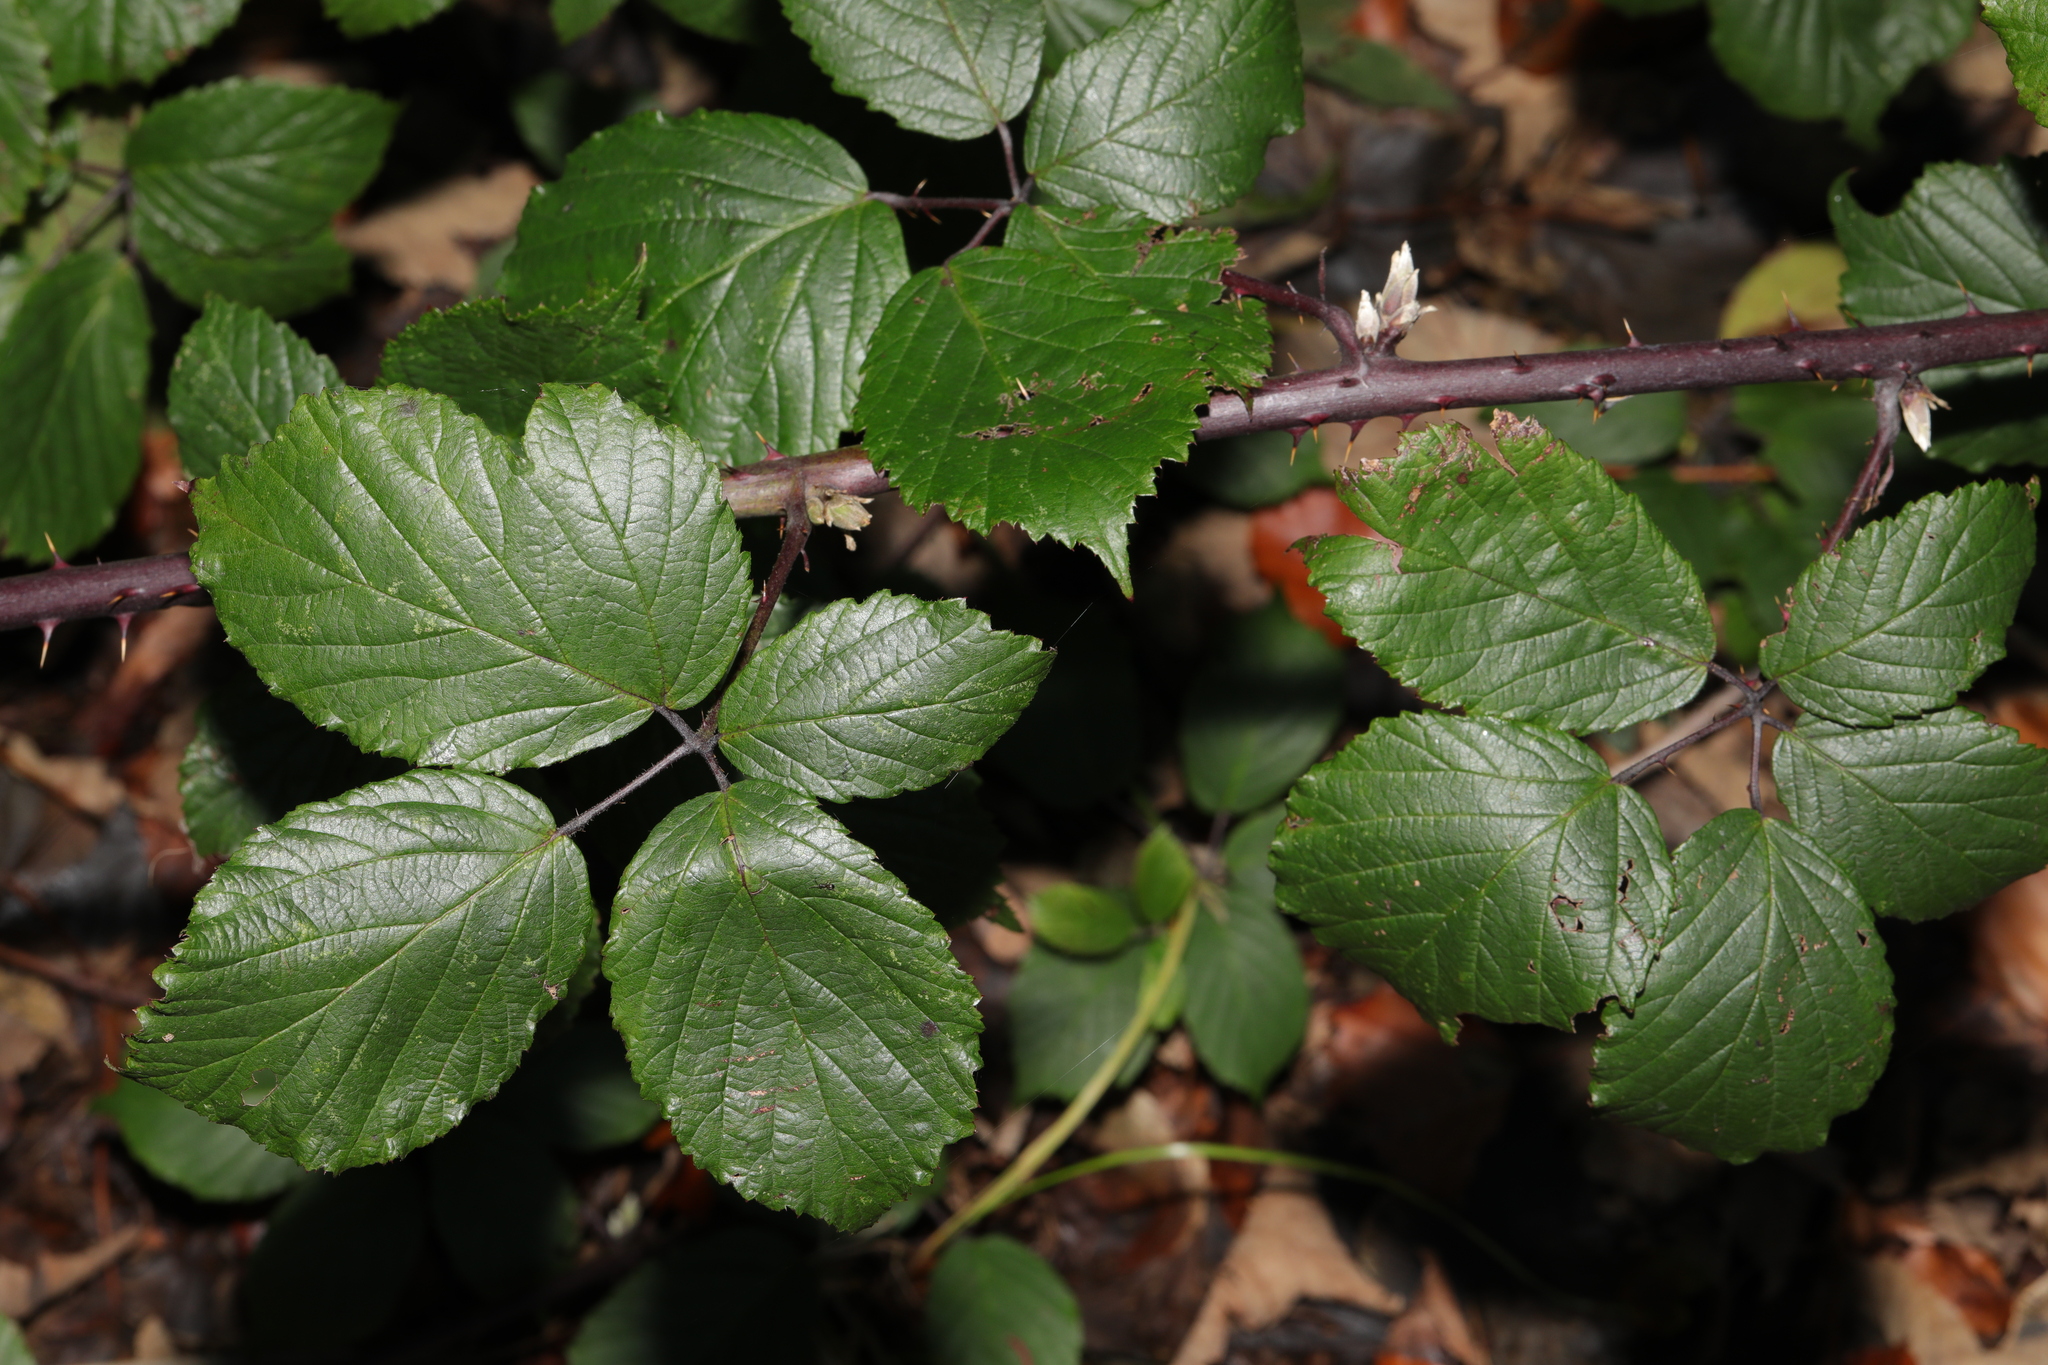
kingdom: Plantae
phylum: Tracheophyta
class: Magnoliopsida
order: Rosales
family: Rosaceae
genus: Rubus
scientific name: Rubus cissburiensis
